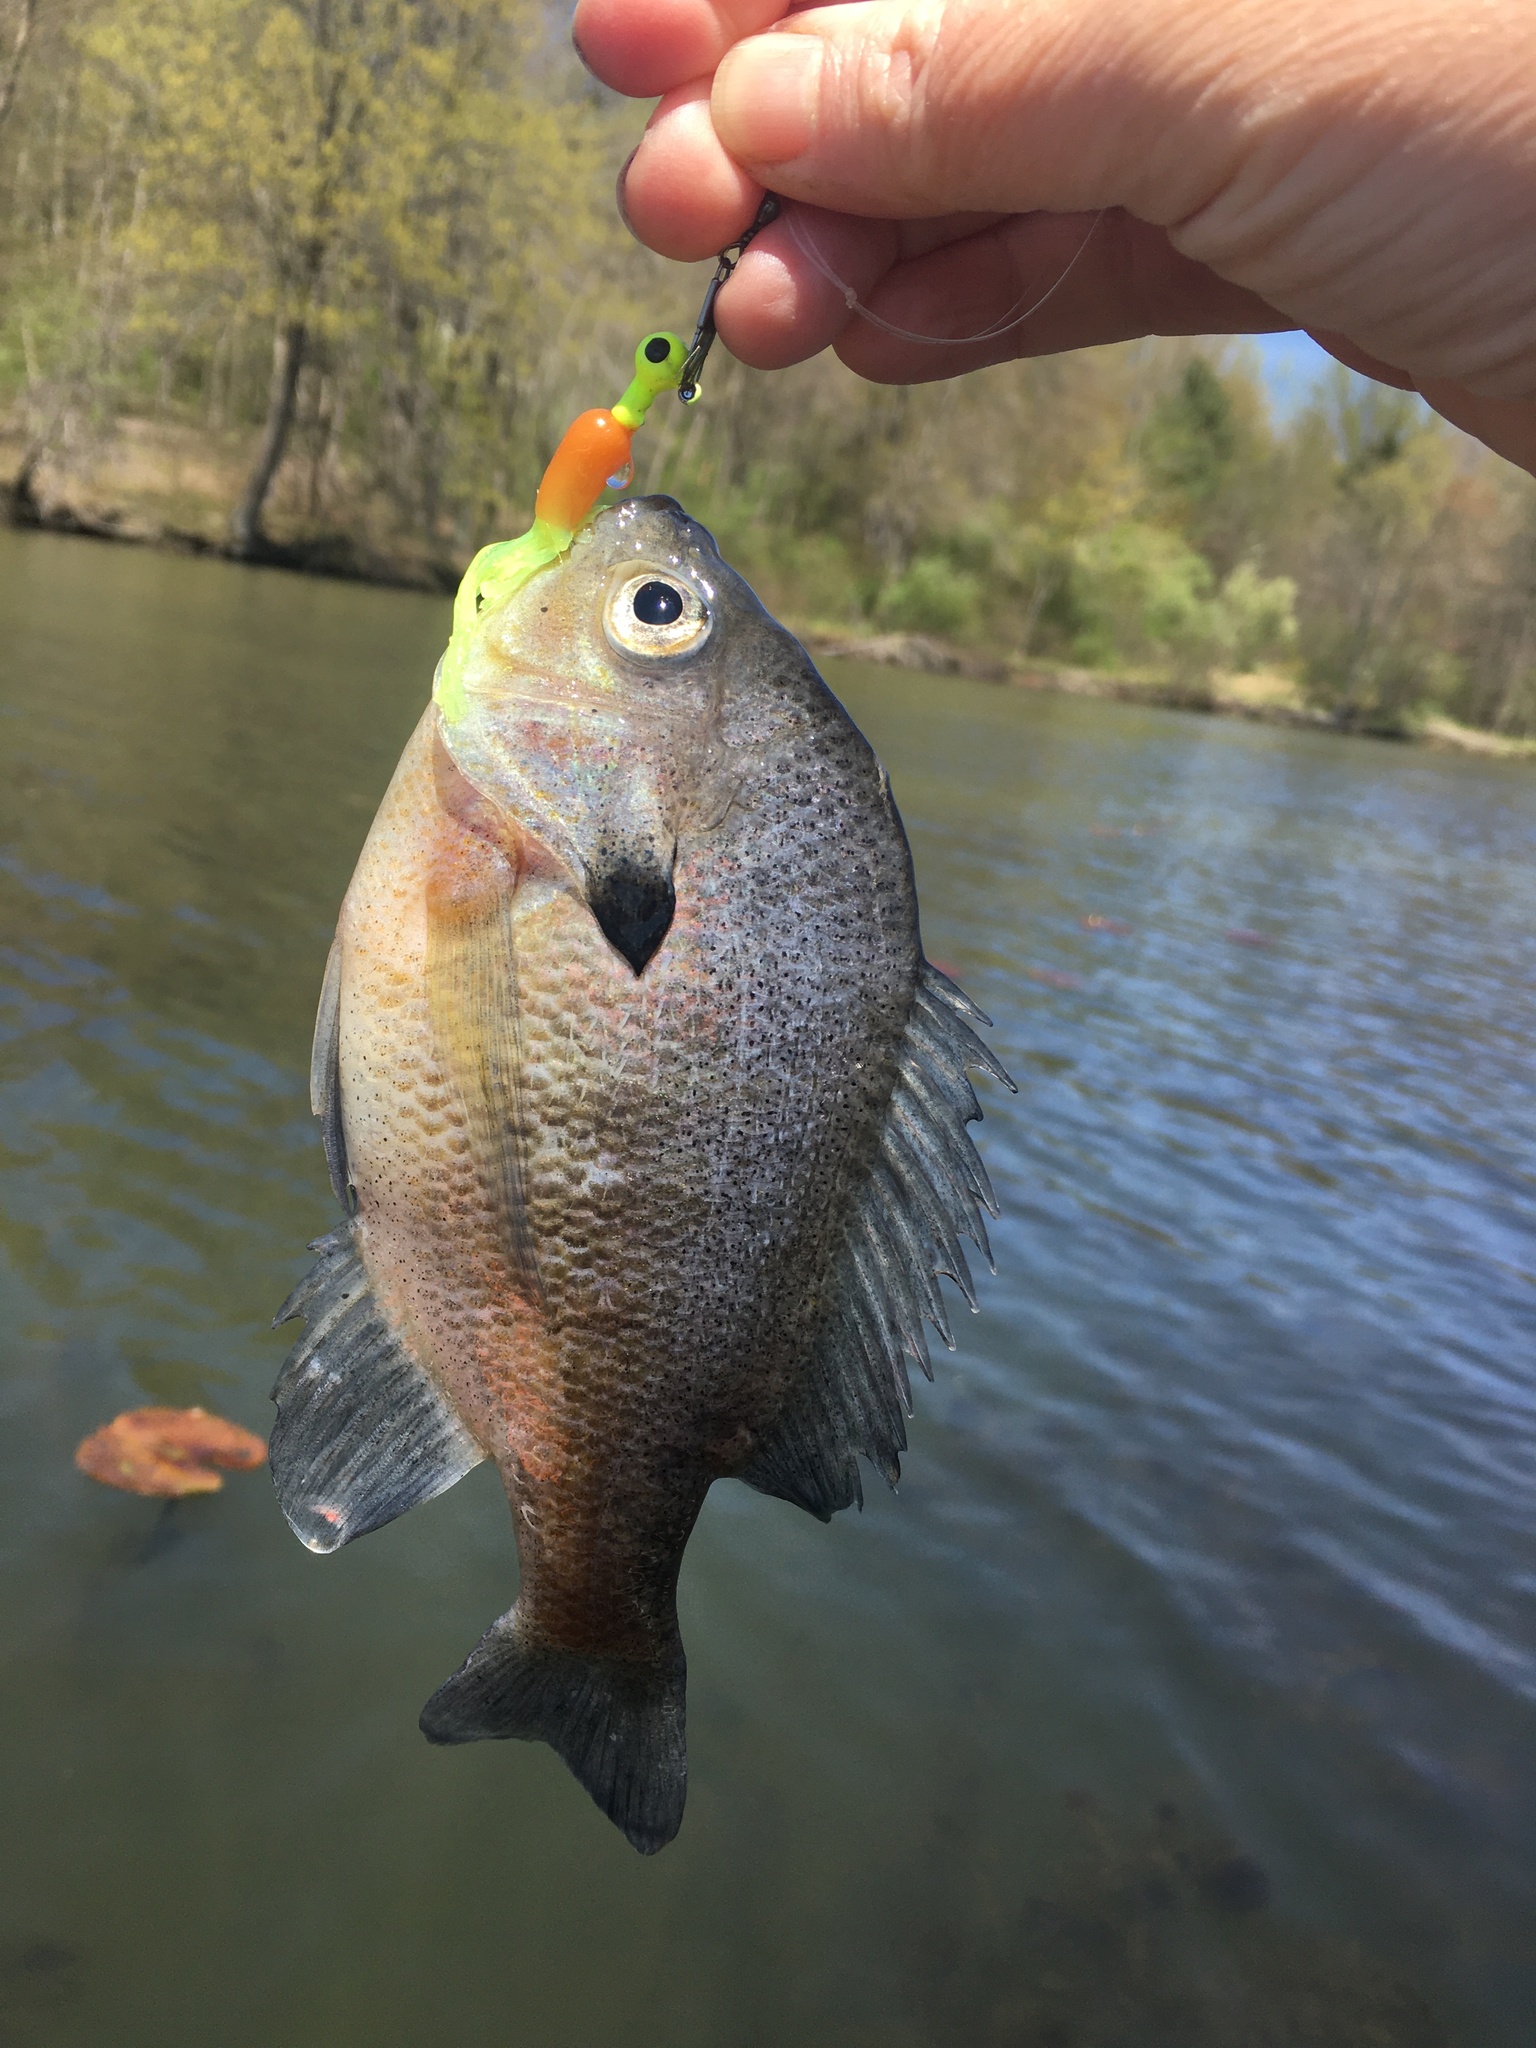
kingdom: Animalia
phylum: Chordata
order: Perciformes
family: Centrarchidae
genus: Lepomis
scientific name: Lepomis macrochirus
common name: Bluegill
